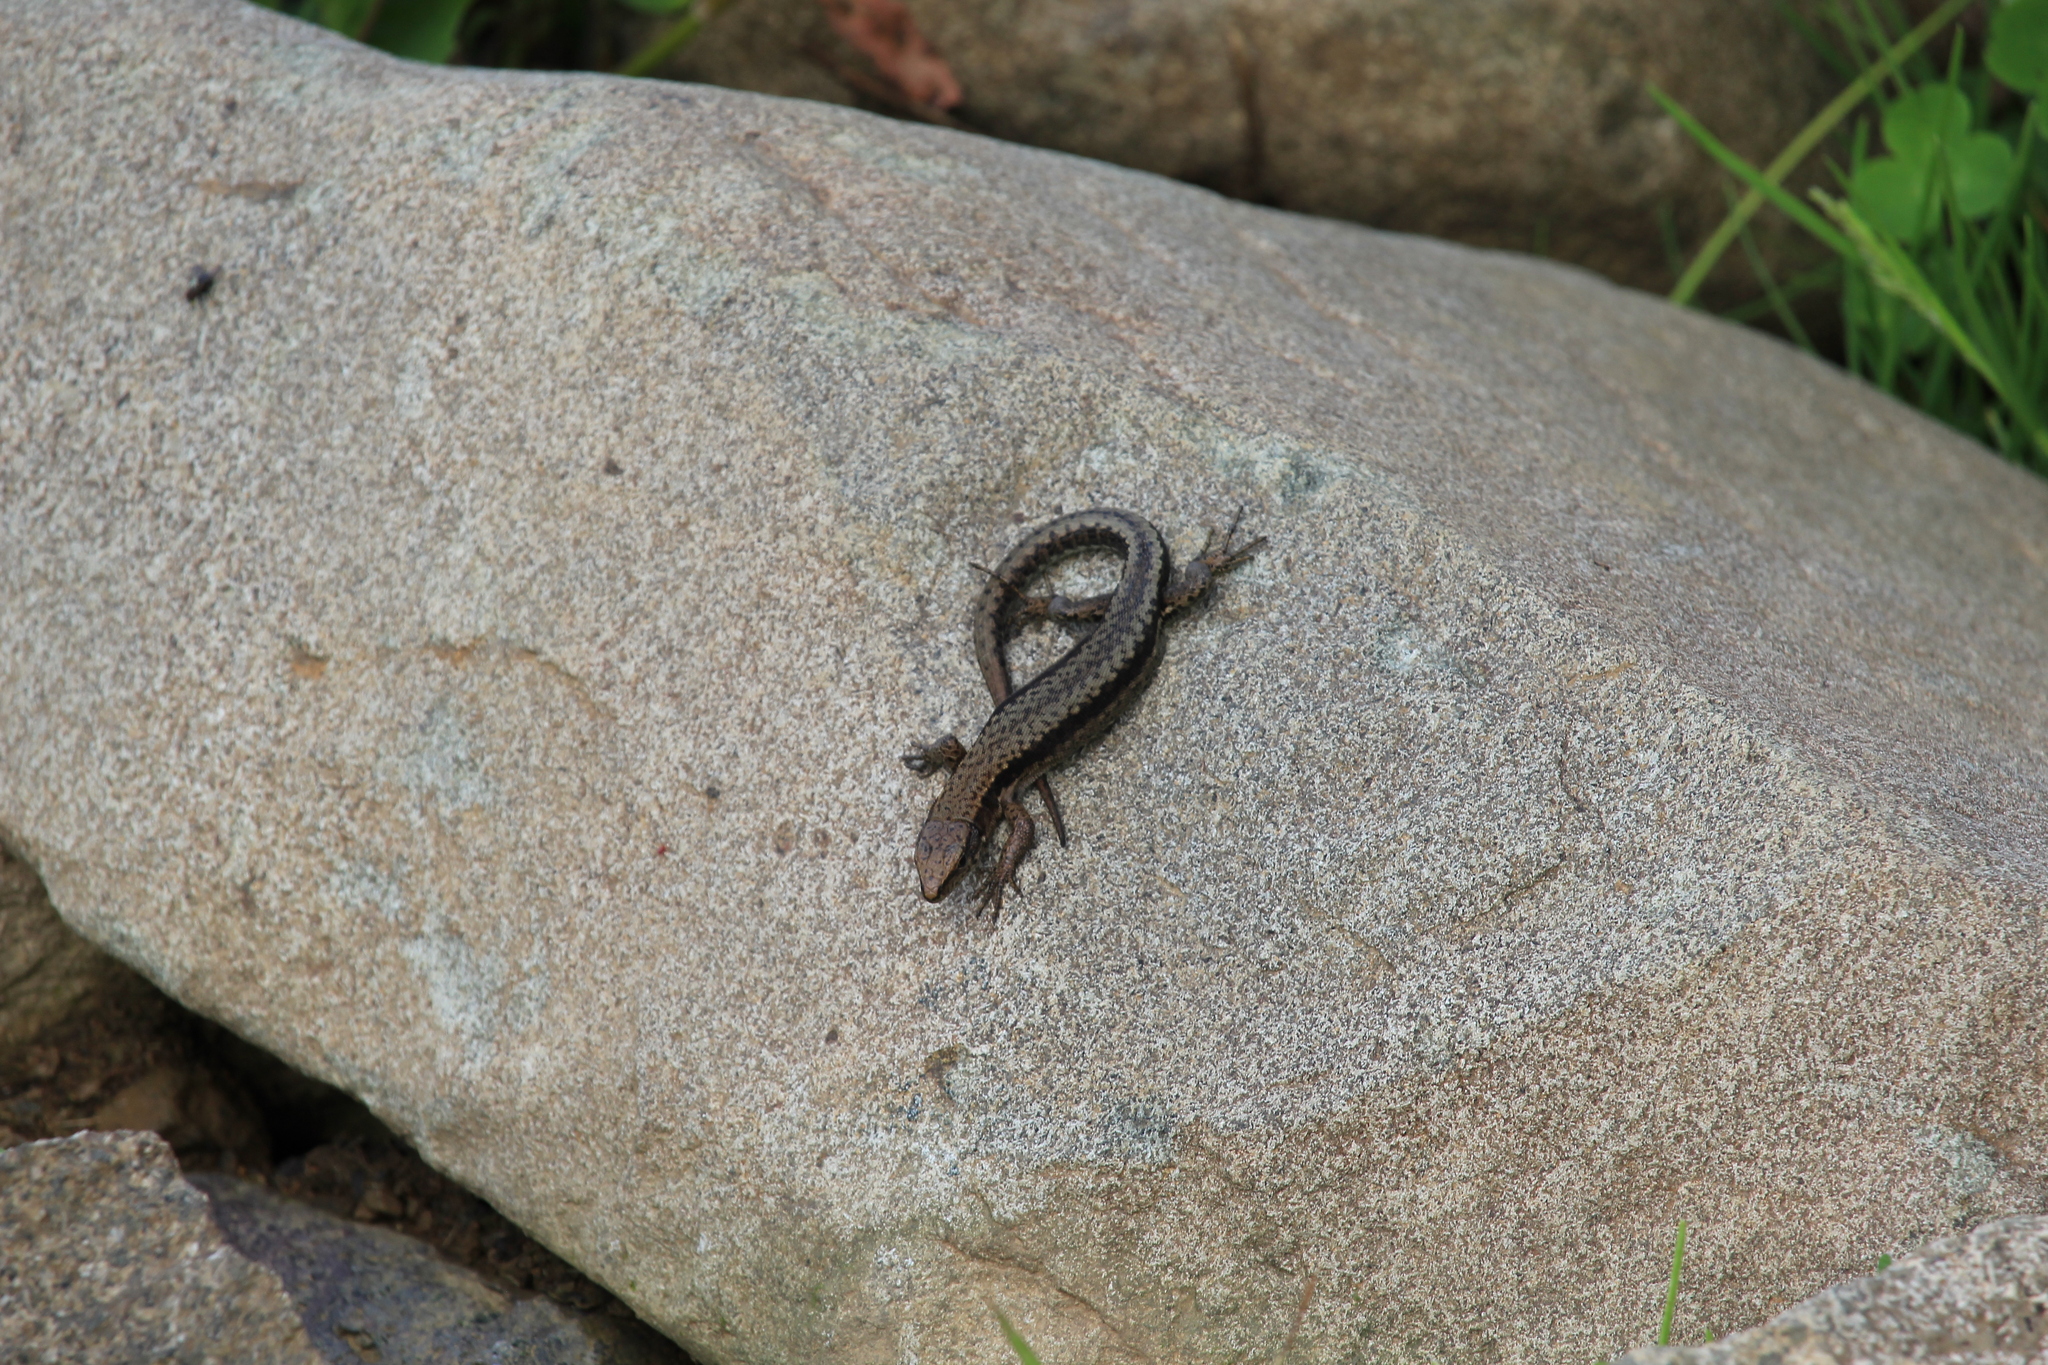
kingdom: Animalia
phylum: Chordata
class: Squamata
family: Lacertidae
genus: Darevskia
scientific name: Darevskia derjugini
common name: Derjugin's lizard
